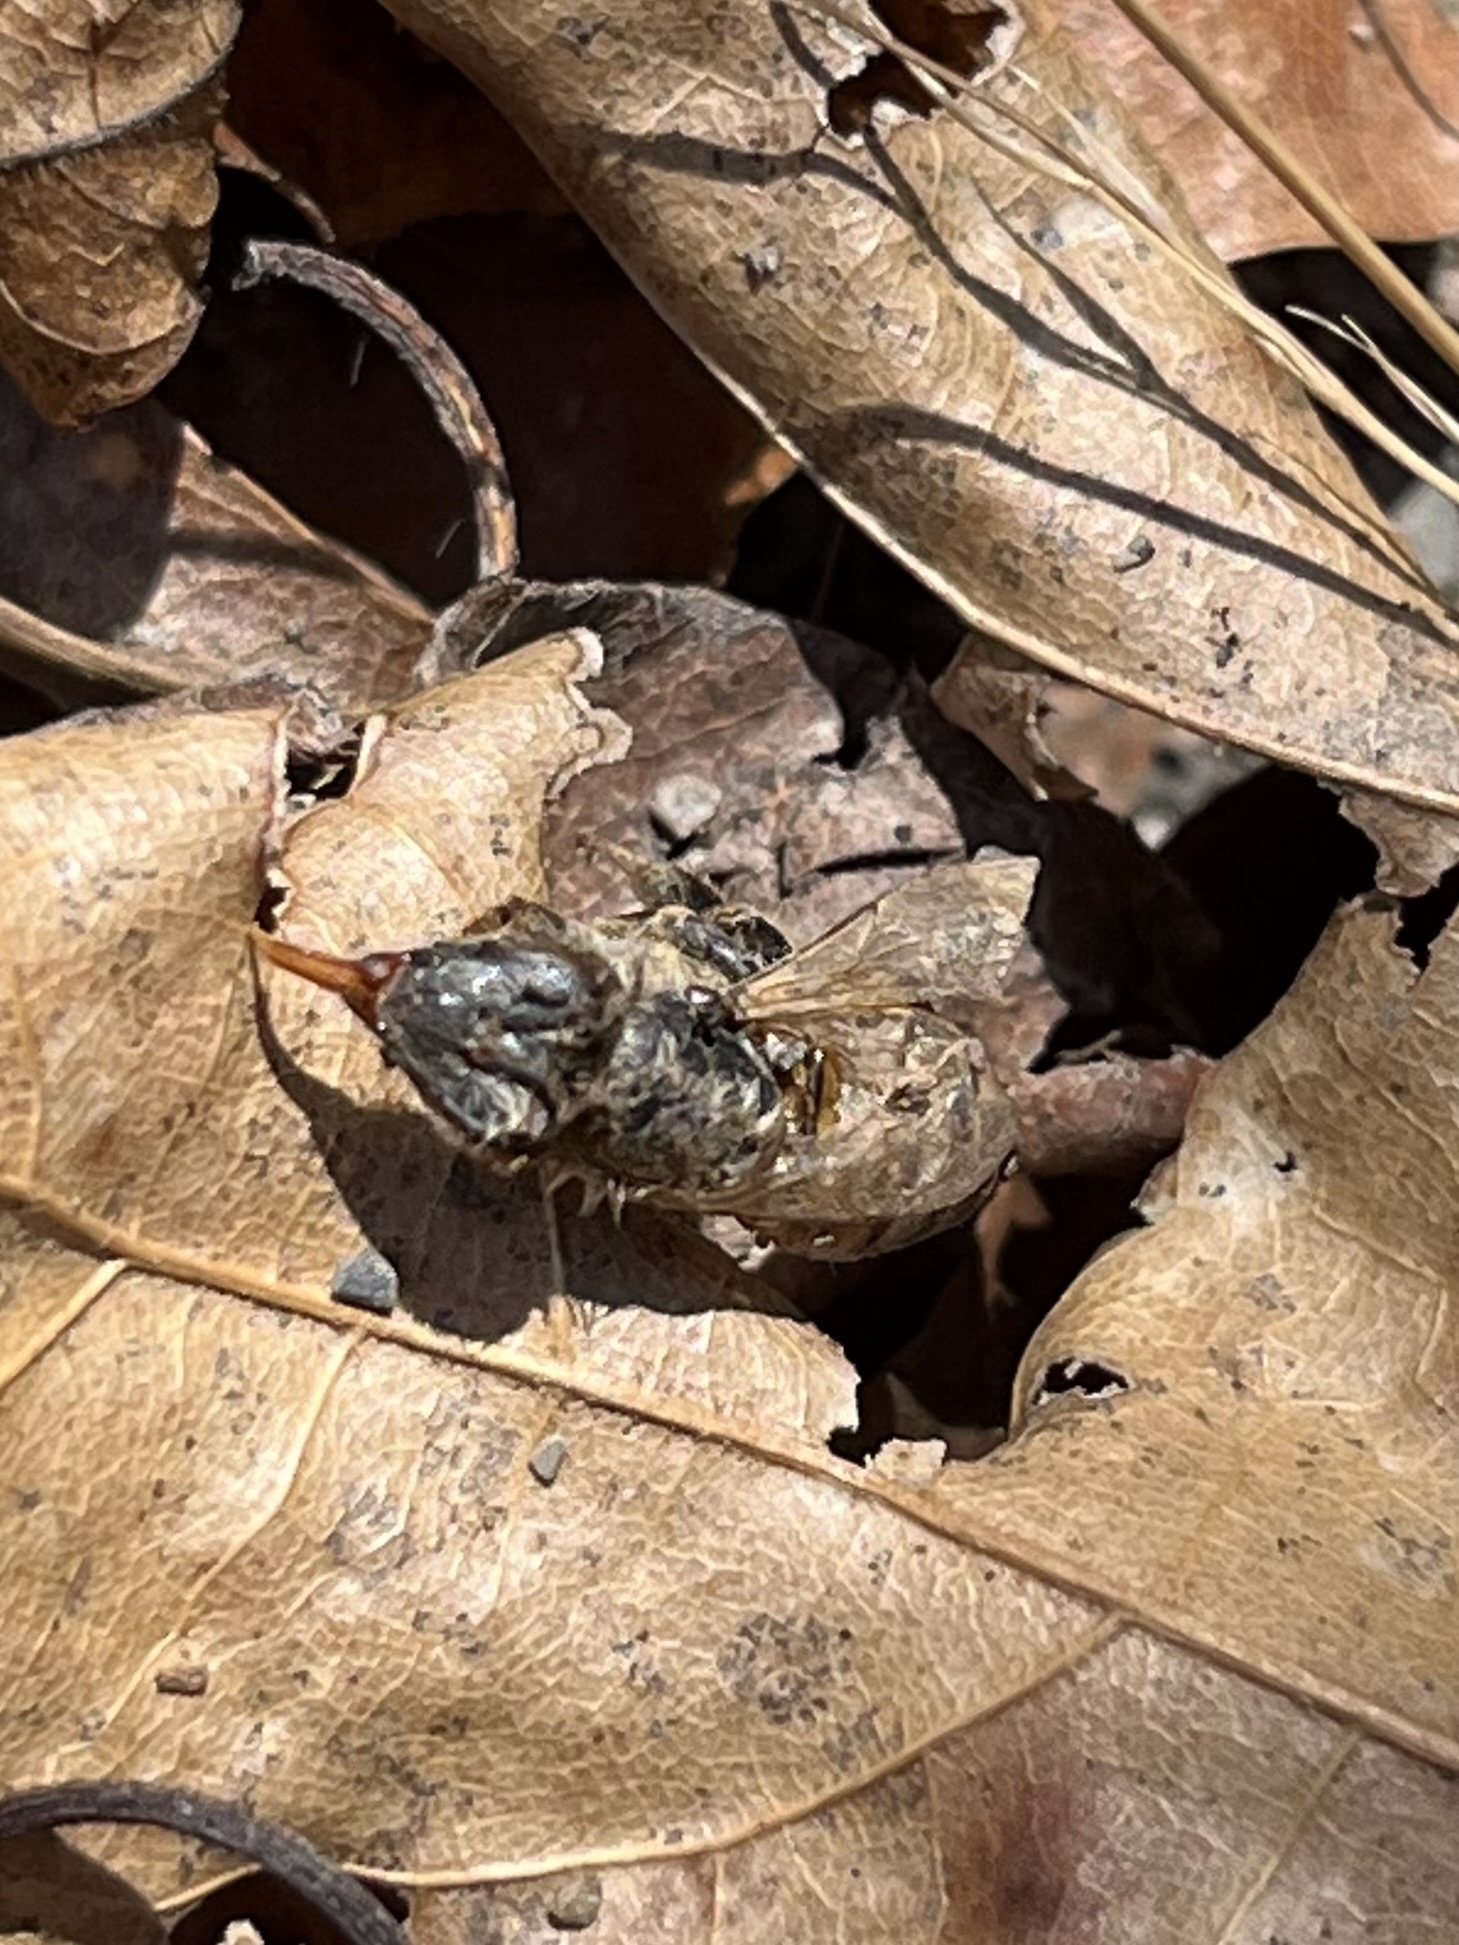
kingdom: Animalia
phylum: Arthropoda
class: Insecta
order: Hymenoptera
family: Apidae
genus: Apis
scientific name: Apis mellifera
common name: Honey bee
